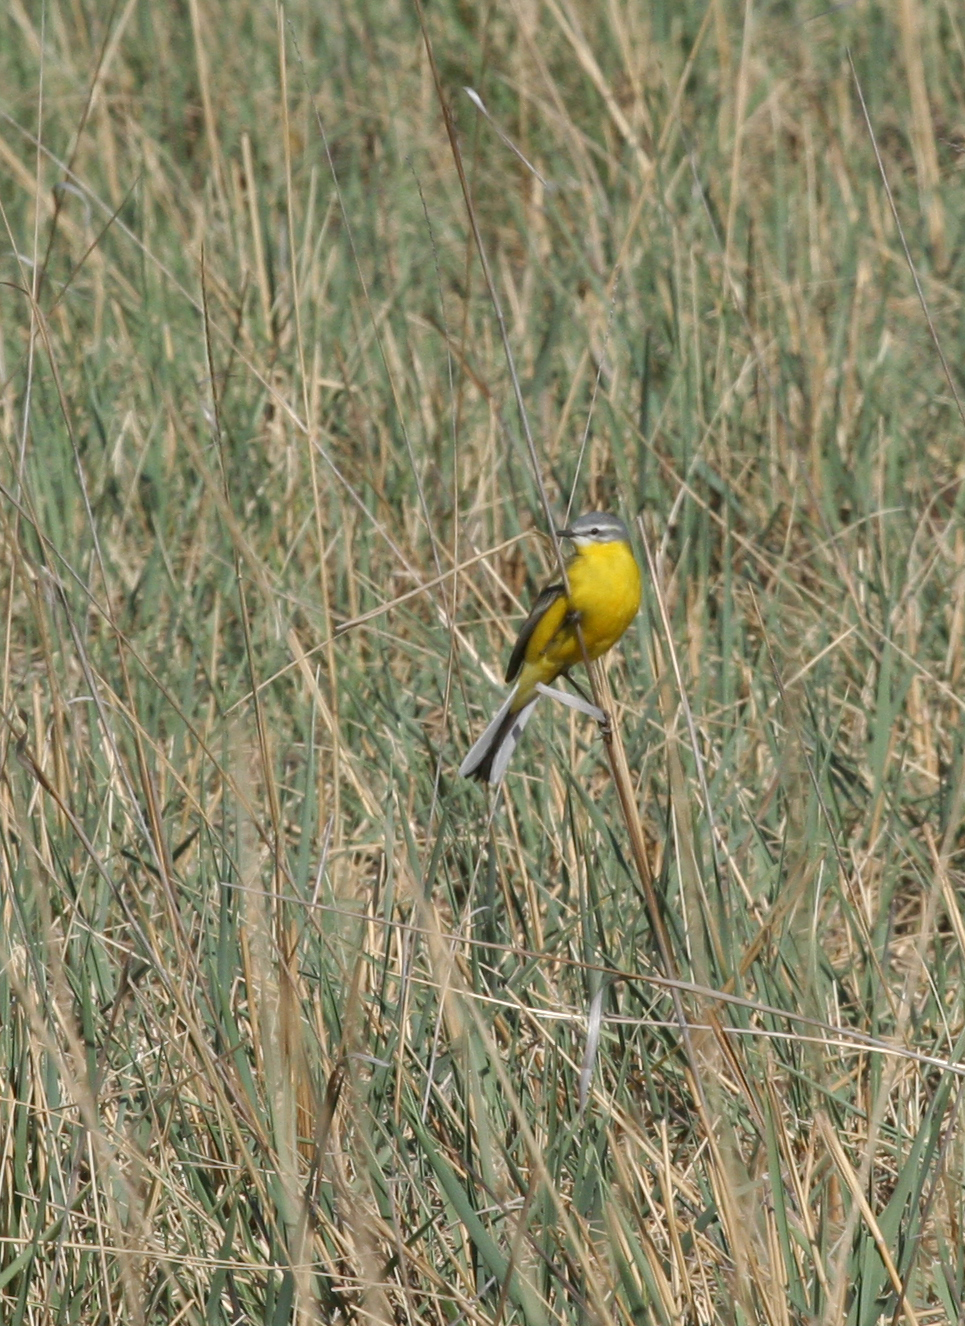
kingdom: Animalia
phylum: Chordata
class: Aves
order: Passeriformes
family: Motacillidae
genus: Motacilla
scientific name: Motacilla flava
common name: Western yellow wagtail
